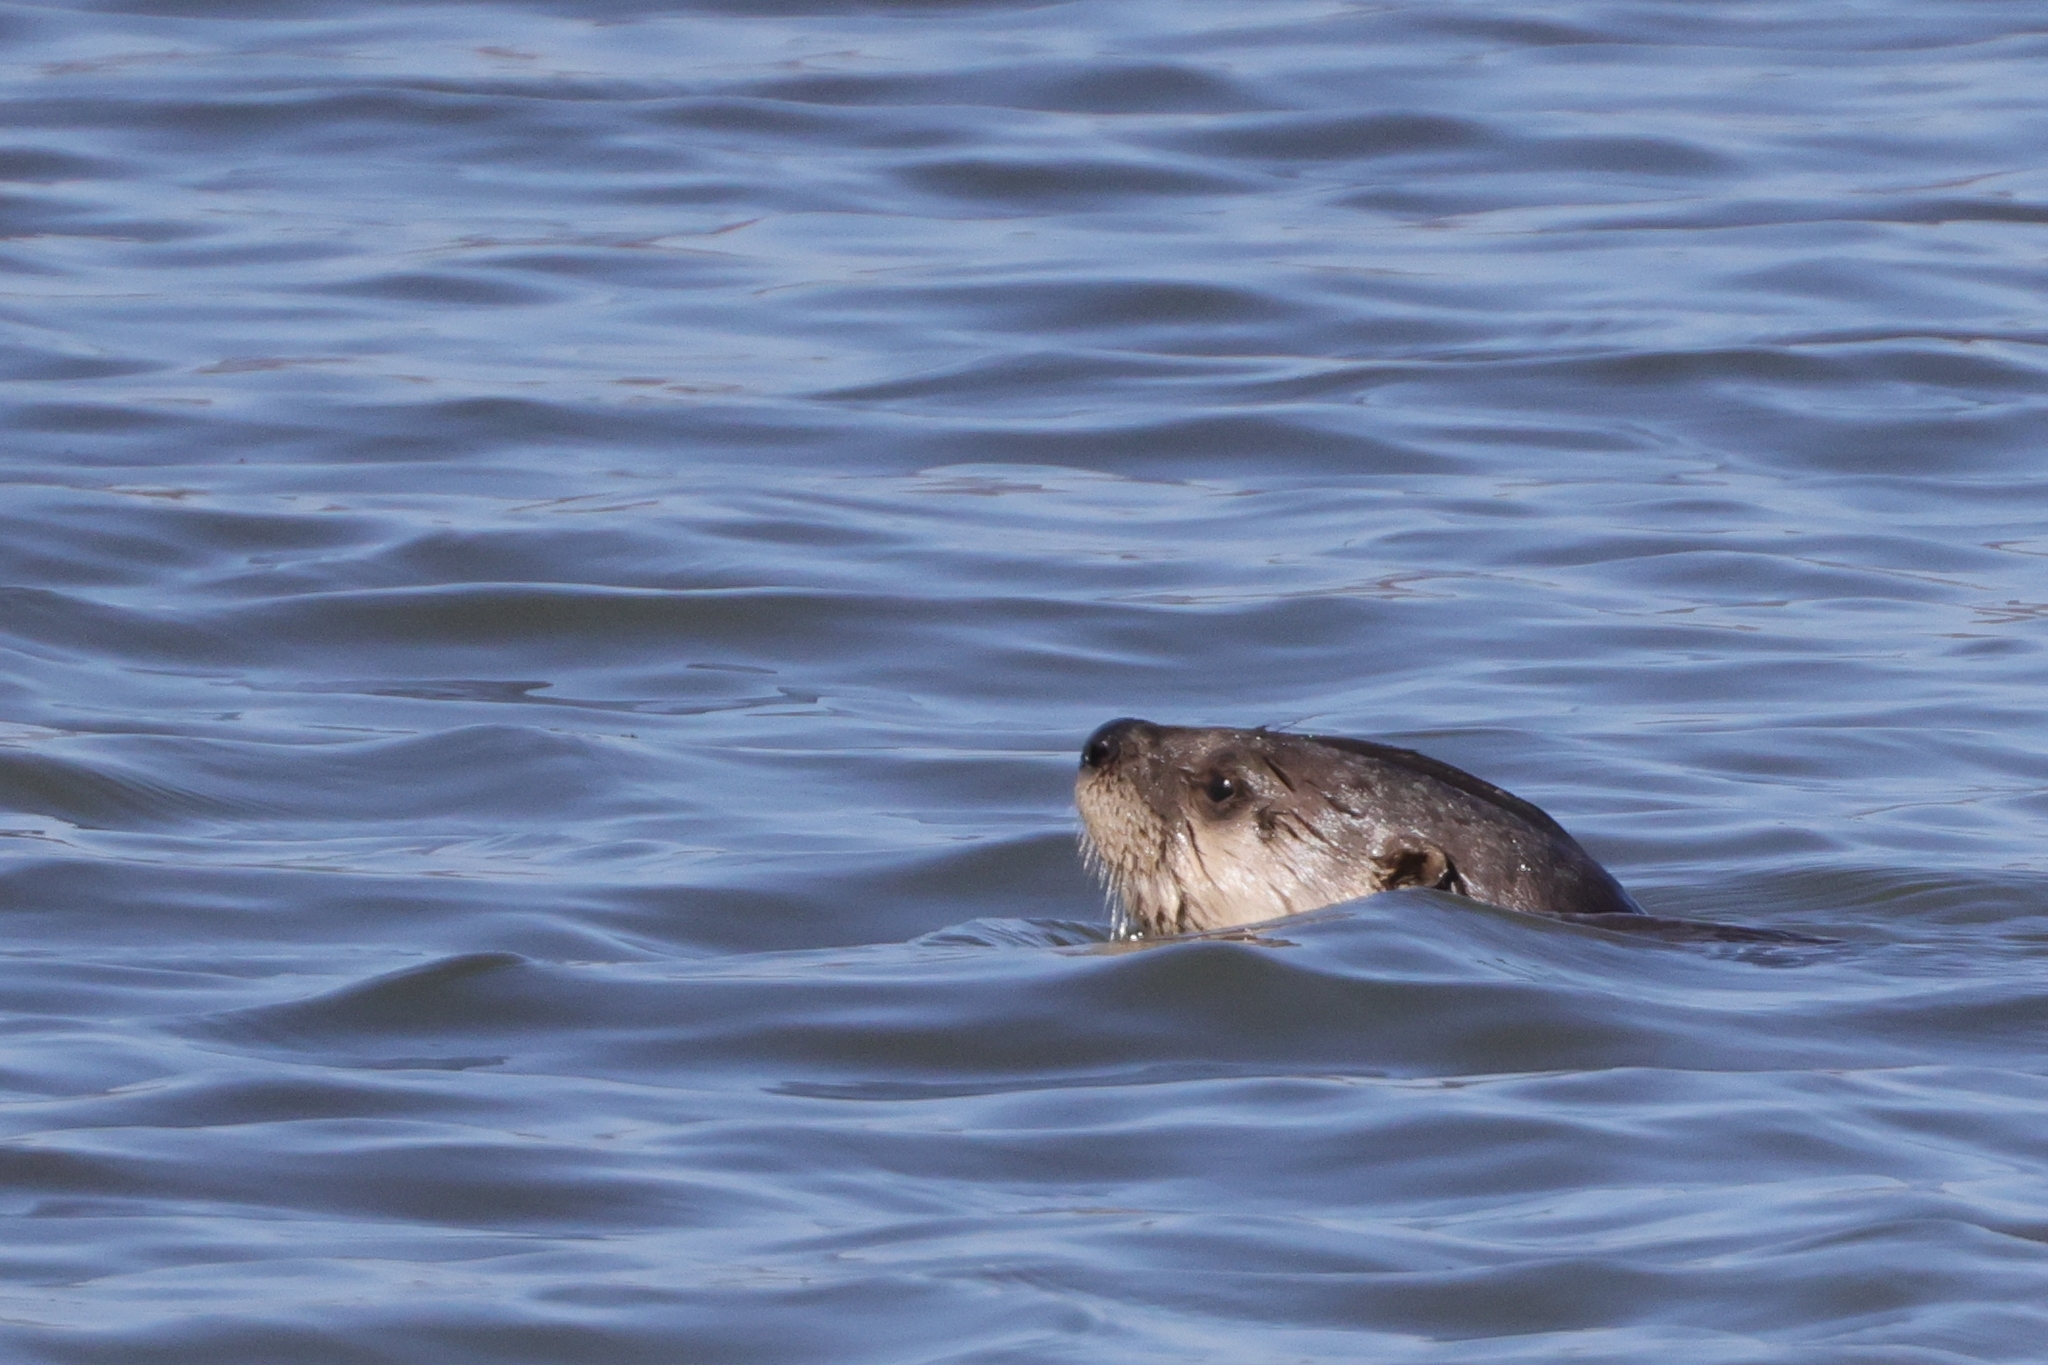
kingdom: Animalia
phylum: Chordata
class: Mammalia
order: Carnivora
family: Mustelidae
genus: Lontra
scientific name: Lontra canadensis
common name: North american river otter
